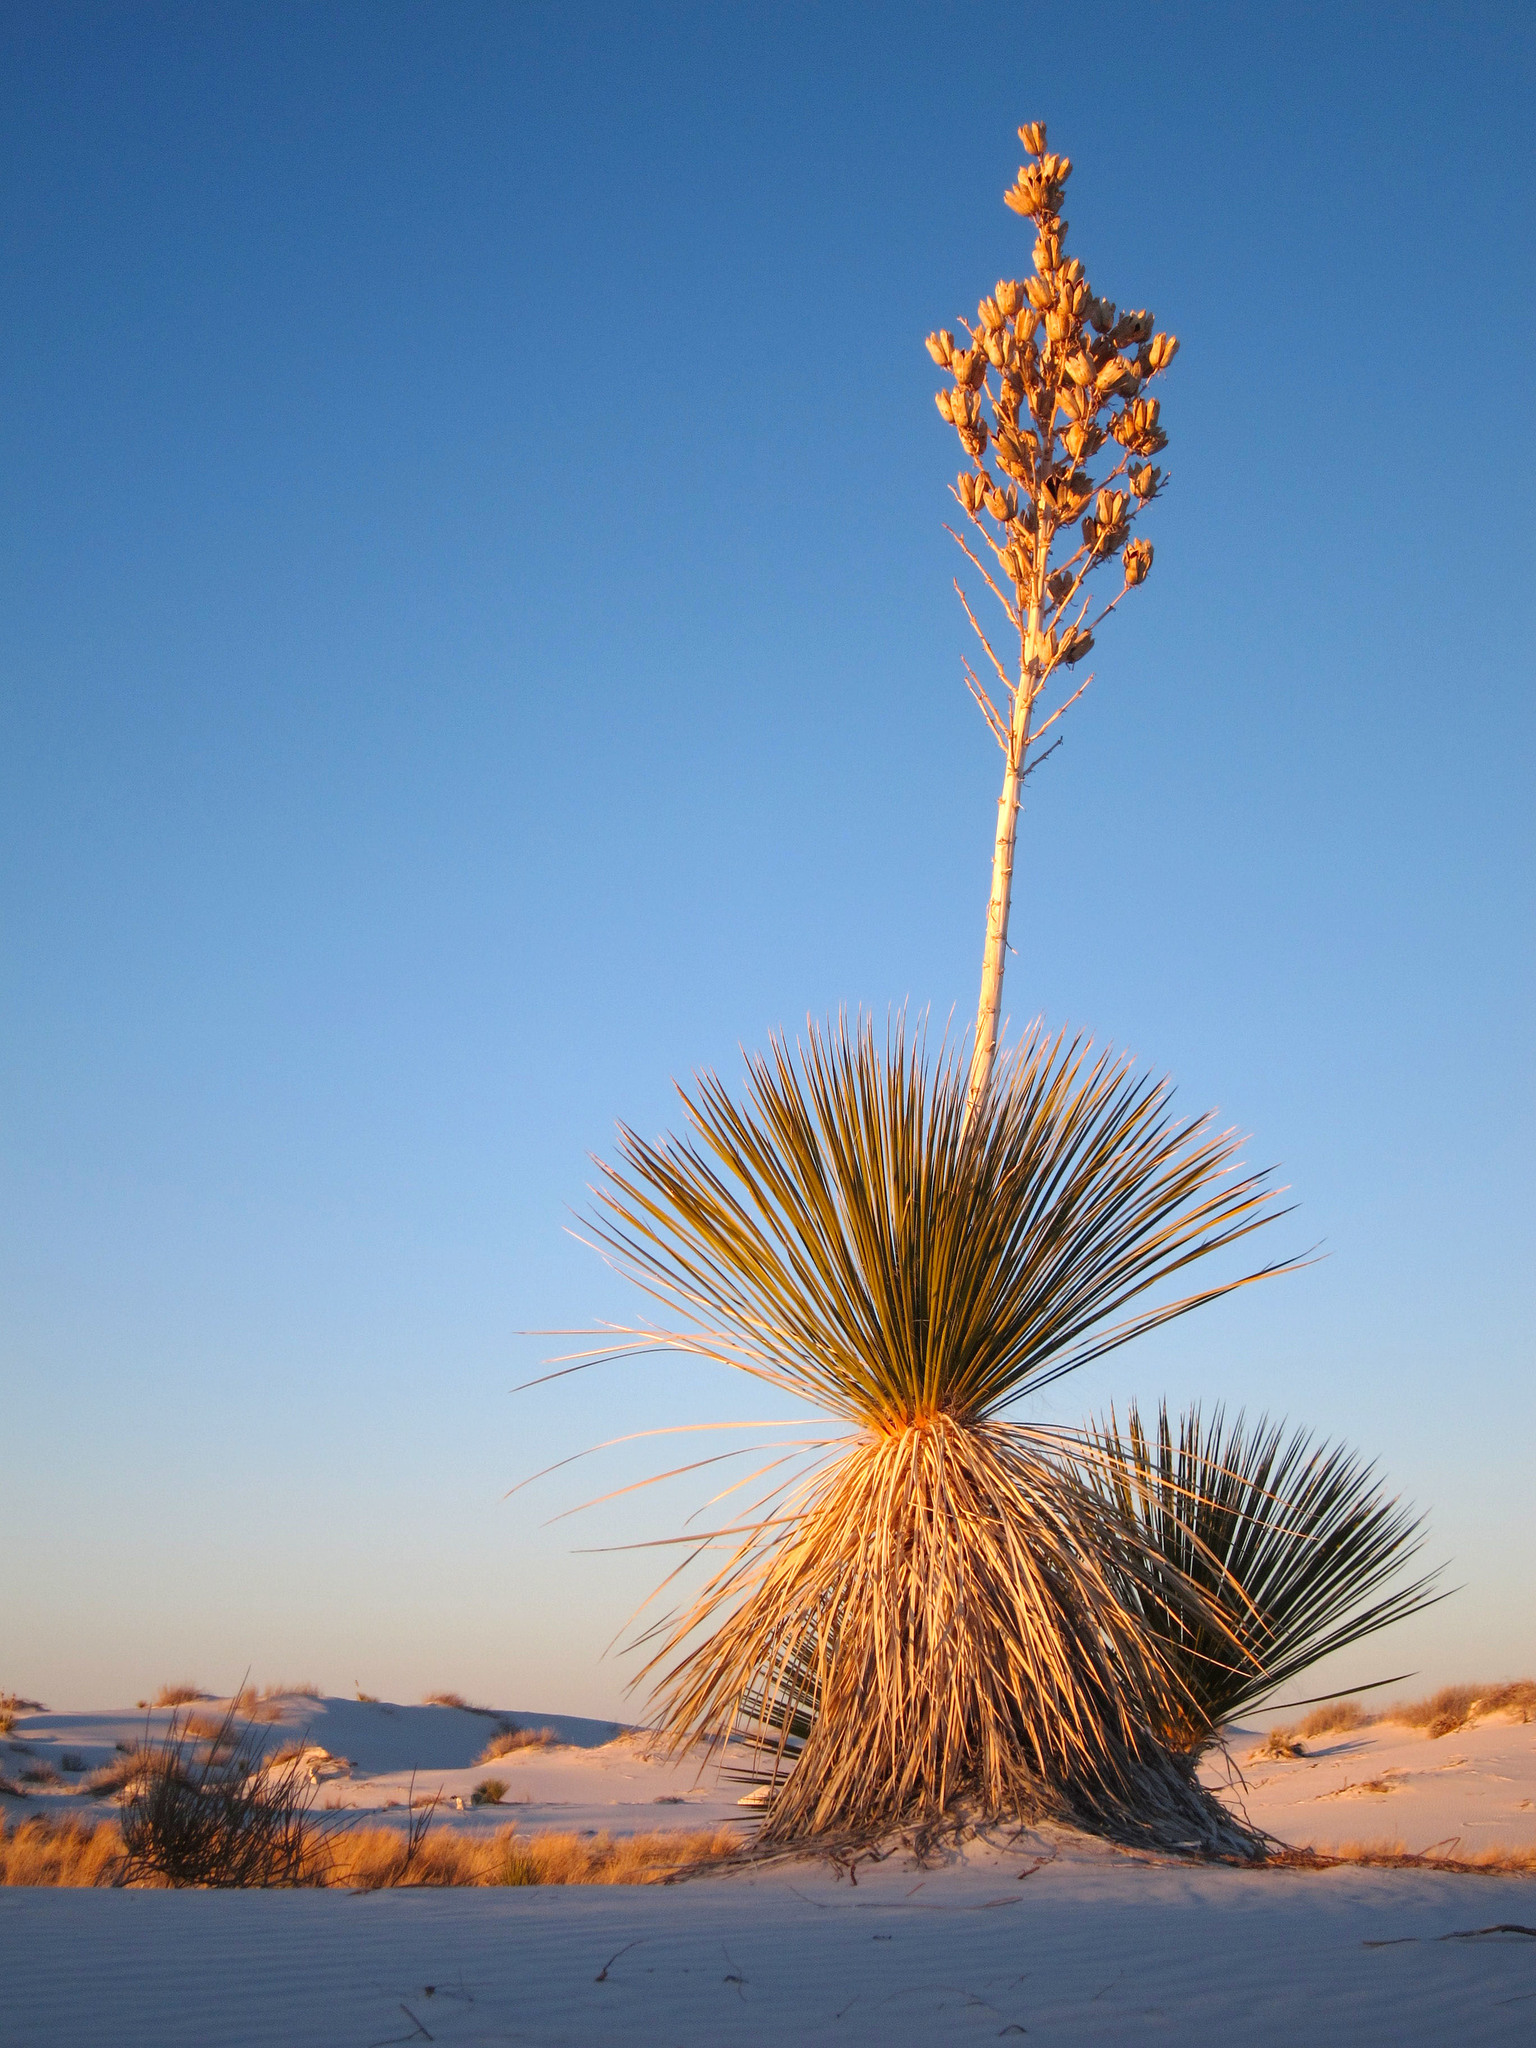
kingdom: Plantae
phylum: Tracheophyta
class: Liliopsida
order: Asparagales
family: Asparagaceae
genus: Yucca
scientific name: Yucca elata
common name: Palmella
